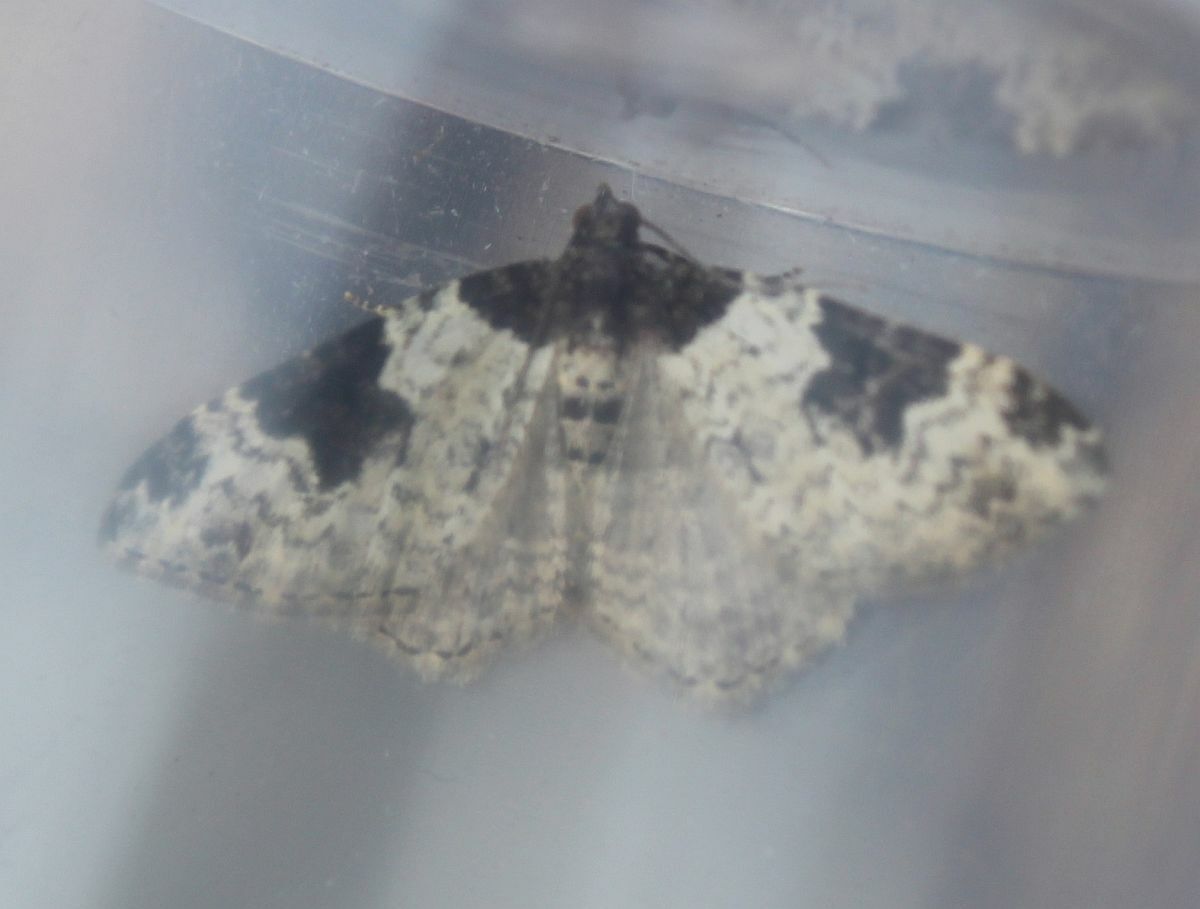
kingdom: Animalia
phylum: Arthropoda
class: Insecta
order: Lepidoptera
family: Geometridae
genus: Xanthorhoe
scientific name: Xanthorhoe fluctuata
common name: Garden carpet
